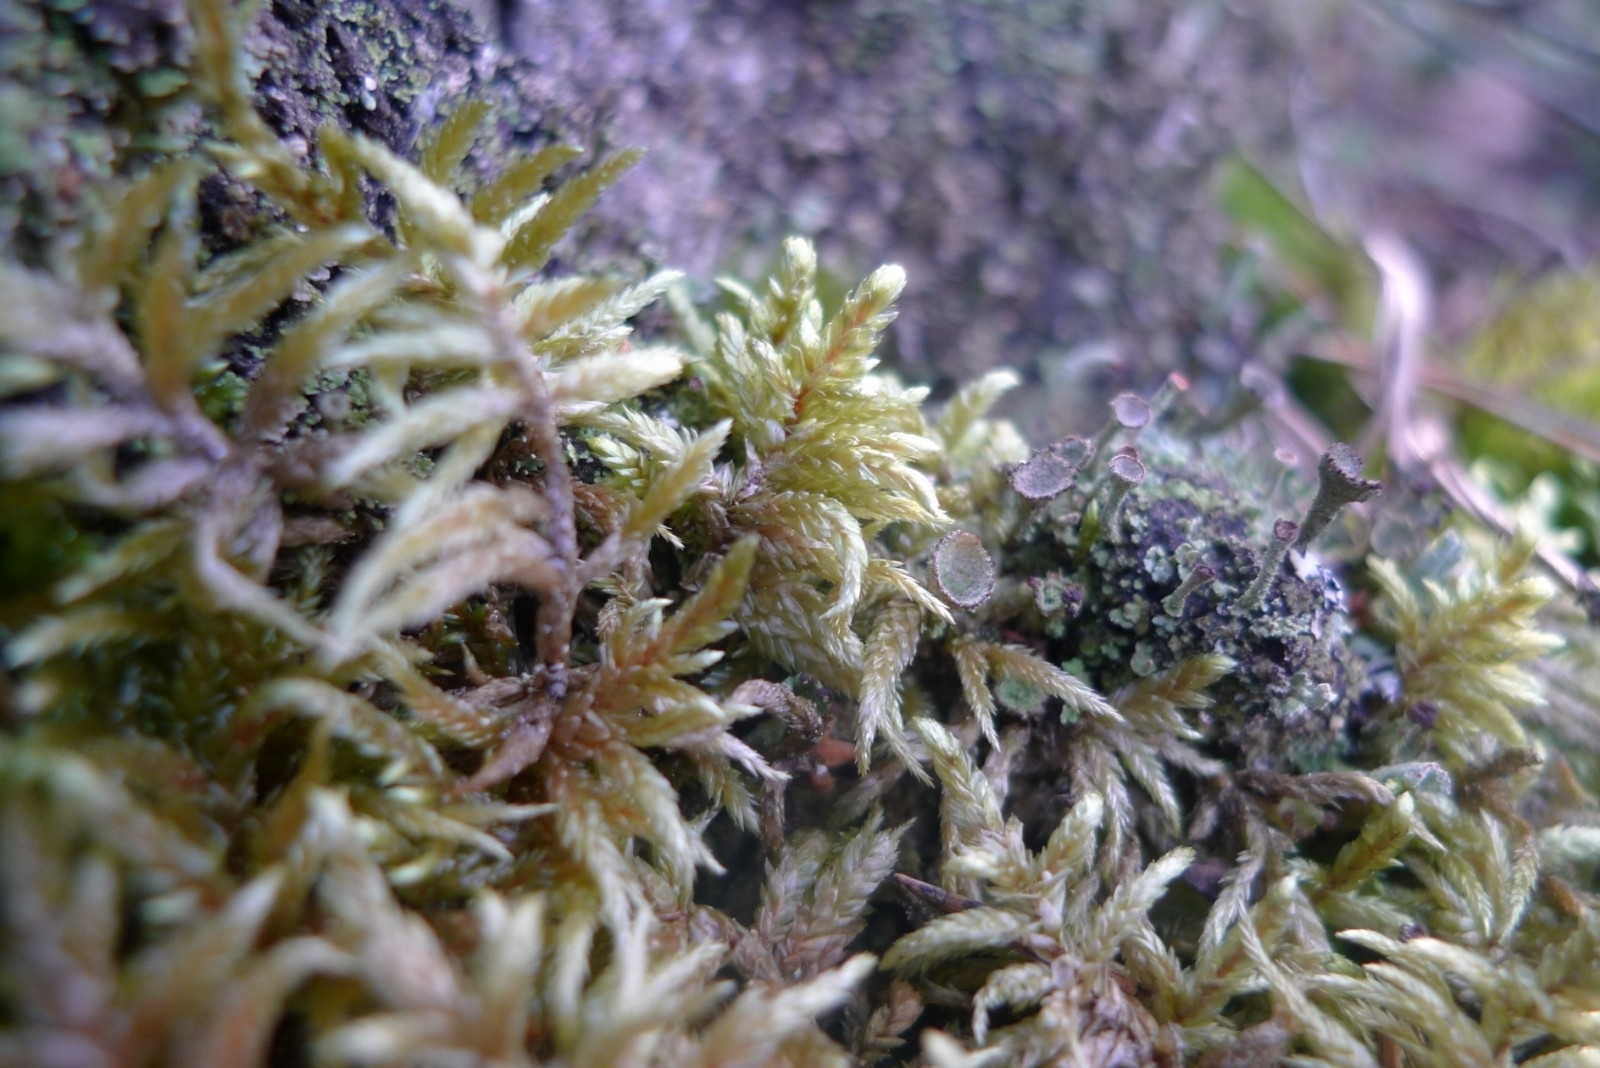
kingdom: Plantae
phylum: Bryophyta
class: Bryopsida
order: Hypnales
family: Hylocomiaceae
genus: Pleurozium
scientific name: Pleurozium schreberi
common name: Red-stemmed feather moss
